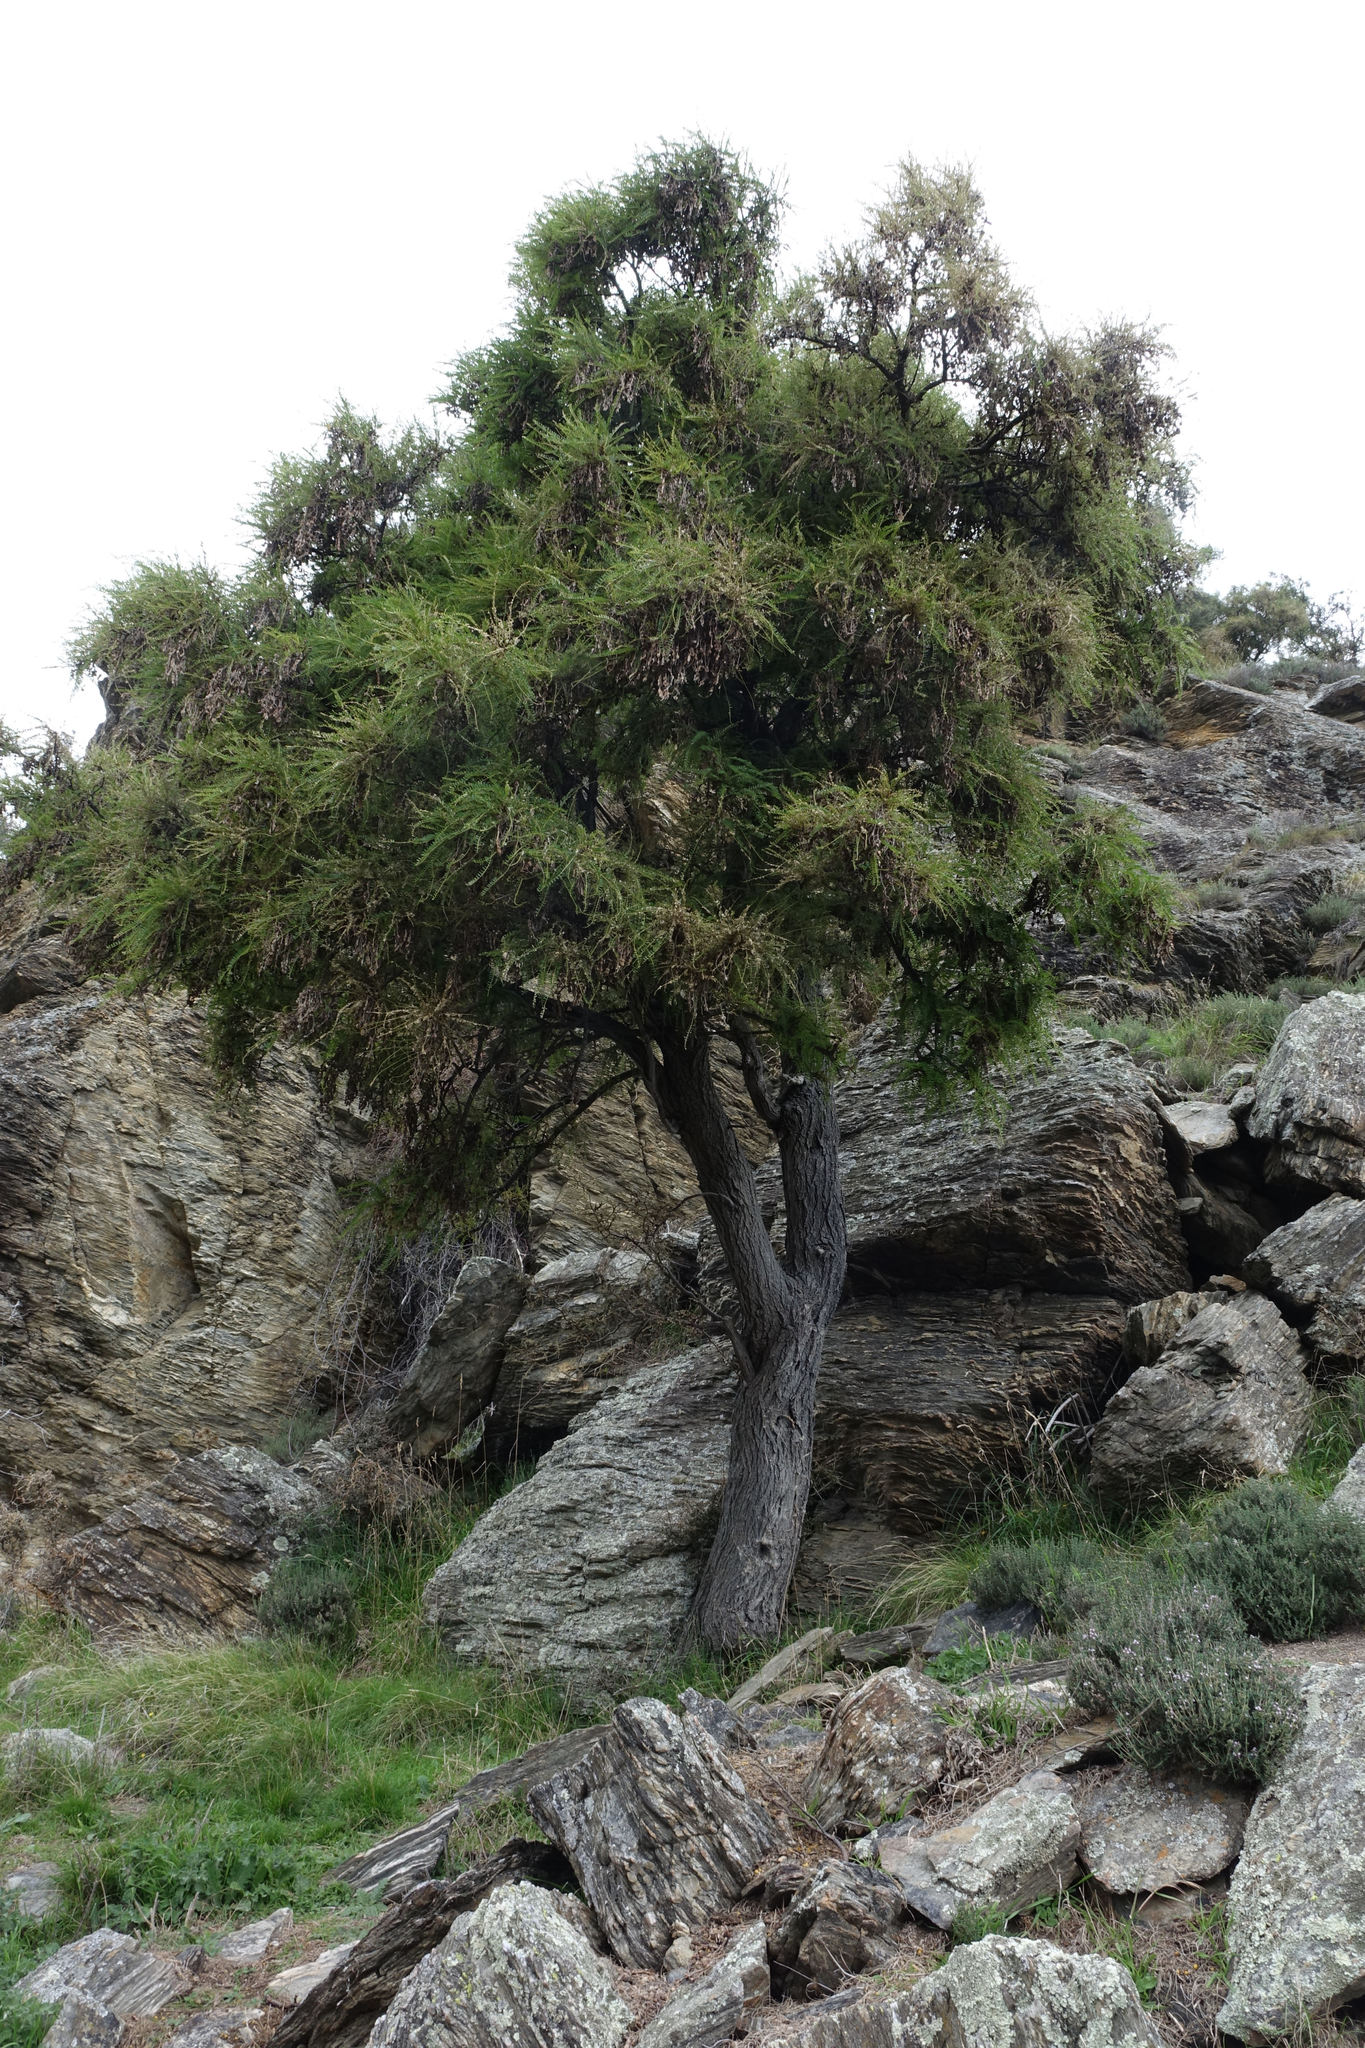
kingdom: Plantae
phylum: Tracheophyta
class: Magnoliopsida
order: Fabales
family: Fabaceae
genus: Sophora
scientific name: Sophora microphylla
